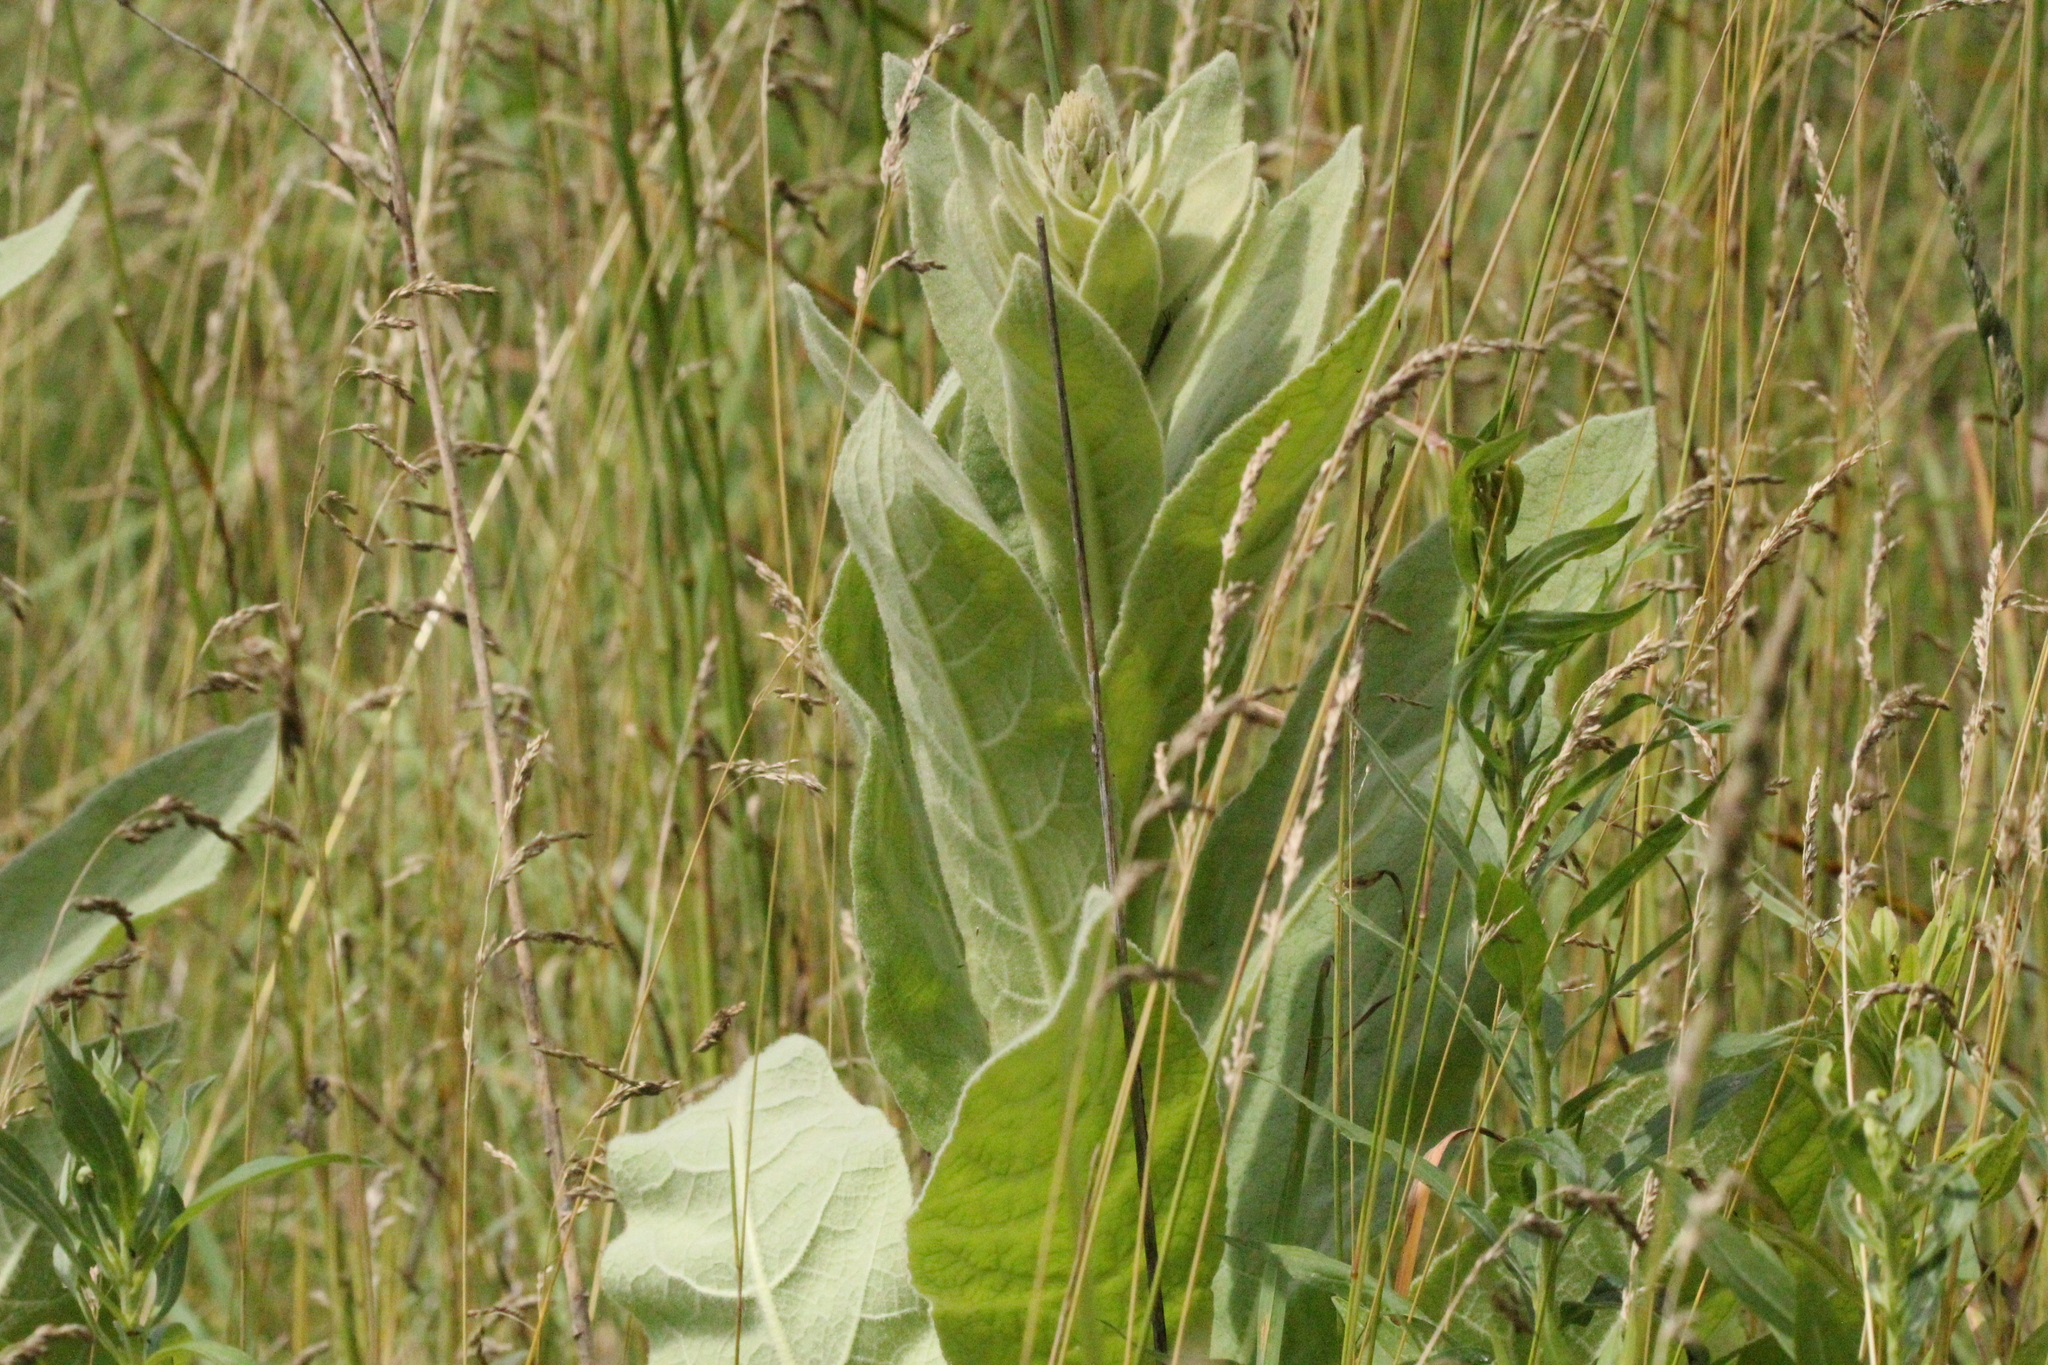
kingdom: Plantae
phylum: Tracheophyta
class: Magnoliopsida
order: Lamiales
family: Scrophulariaceae
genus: Verbascum
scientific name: Verbascum thapsus
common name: Common mullein
